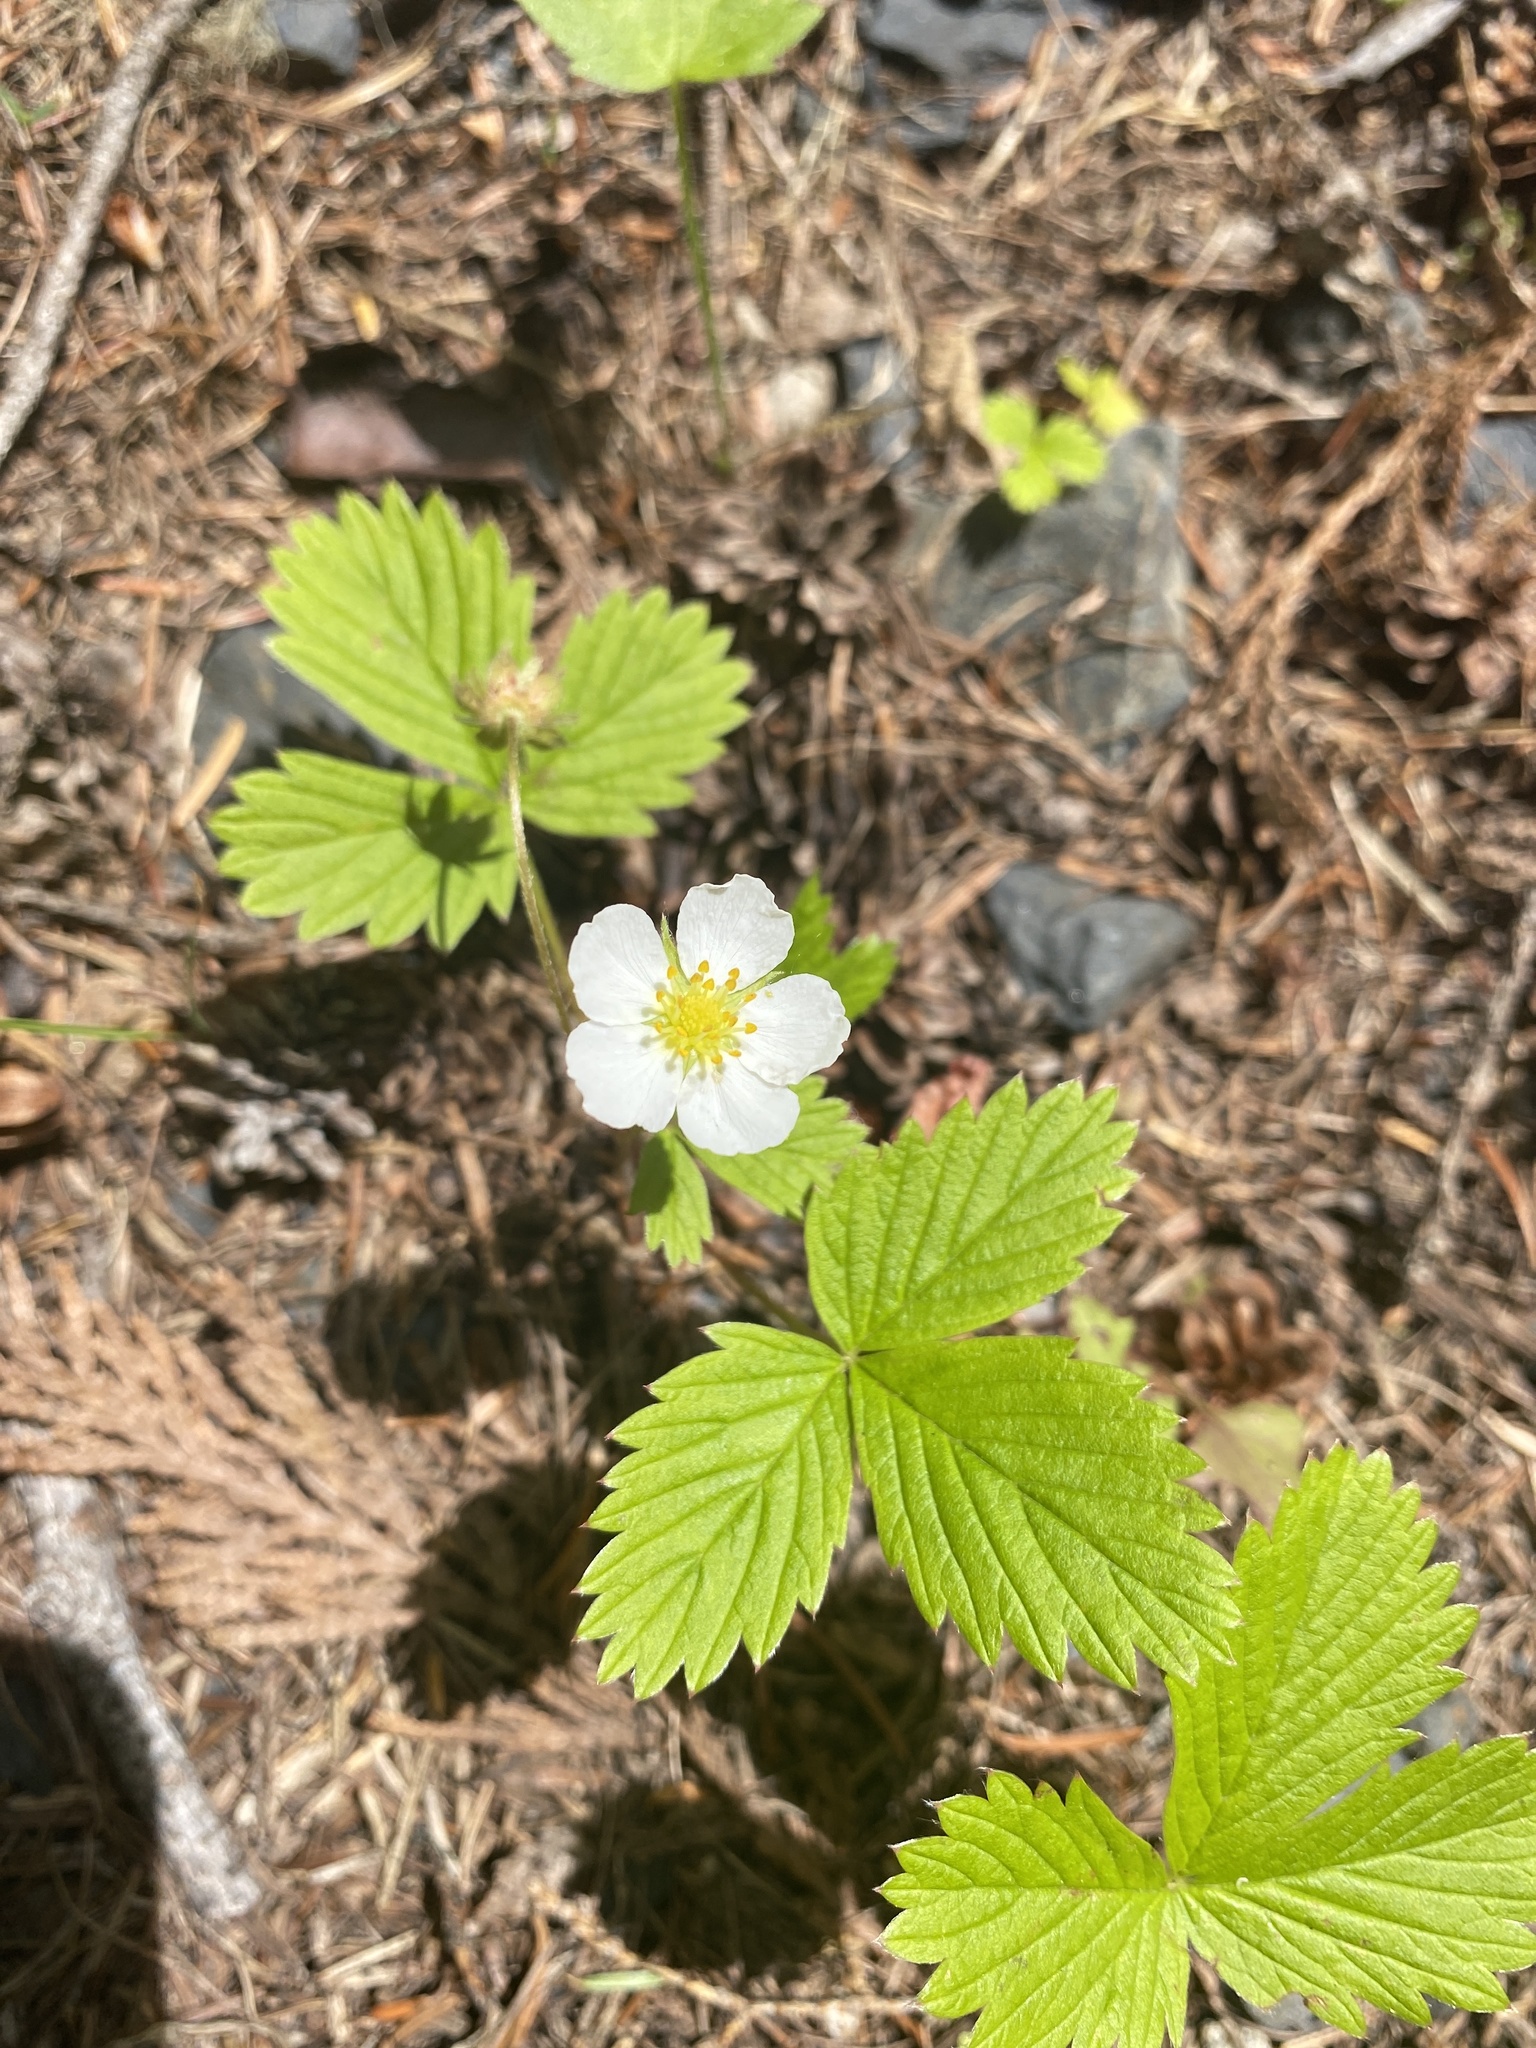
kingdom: Plantae
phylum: Tracheophyta
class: Magnoliopsida
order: Rosales
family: Rosaceae
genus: Fragaria
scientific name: Fragaria vesca
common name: Wild strawberry
